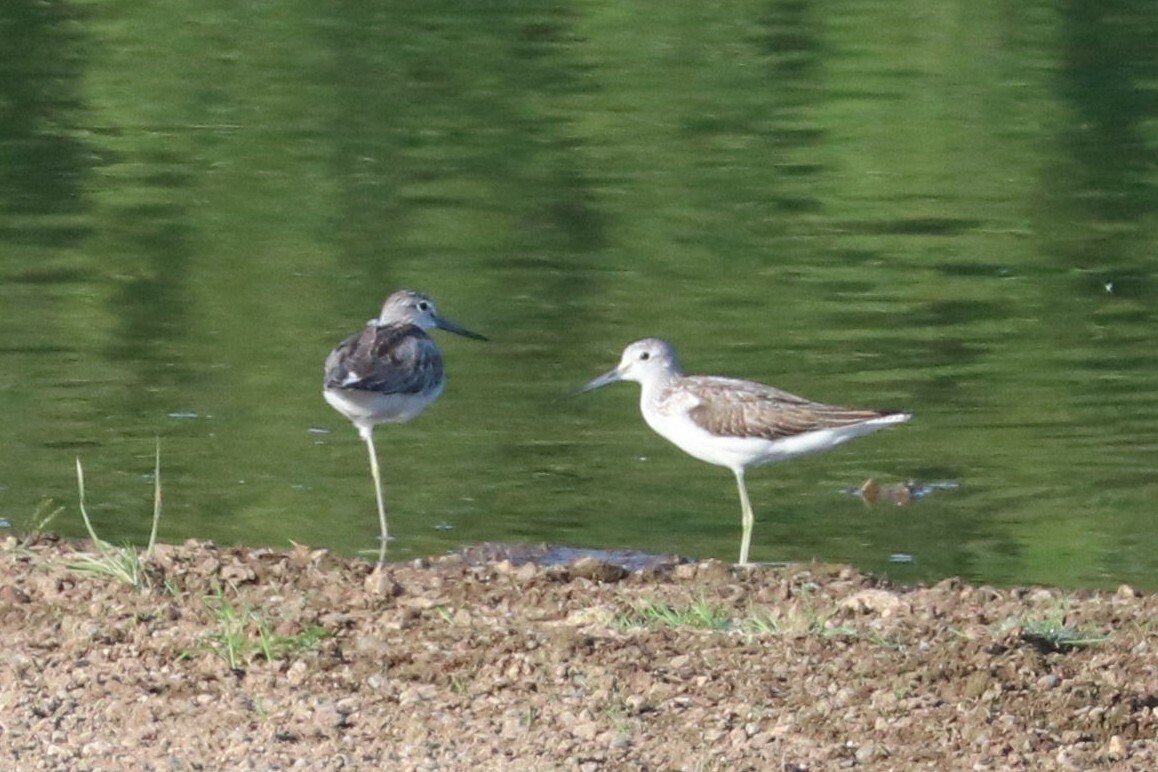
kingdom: Animalia
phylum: Chordata
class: Aves
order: Charadriiformes
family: Scolopacidae
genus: Tringa
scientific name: Tringa nebularia
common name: Common greenshank
